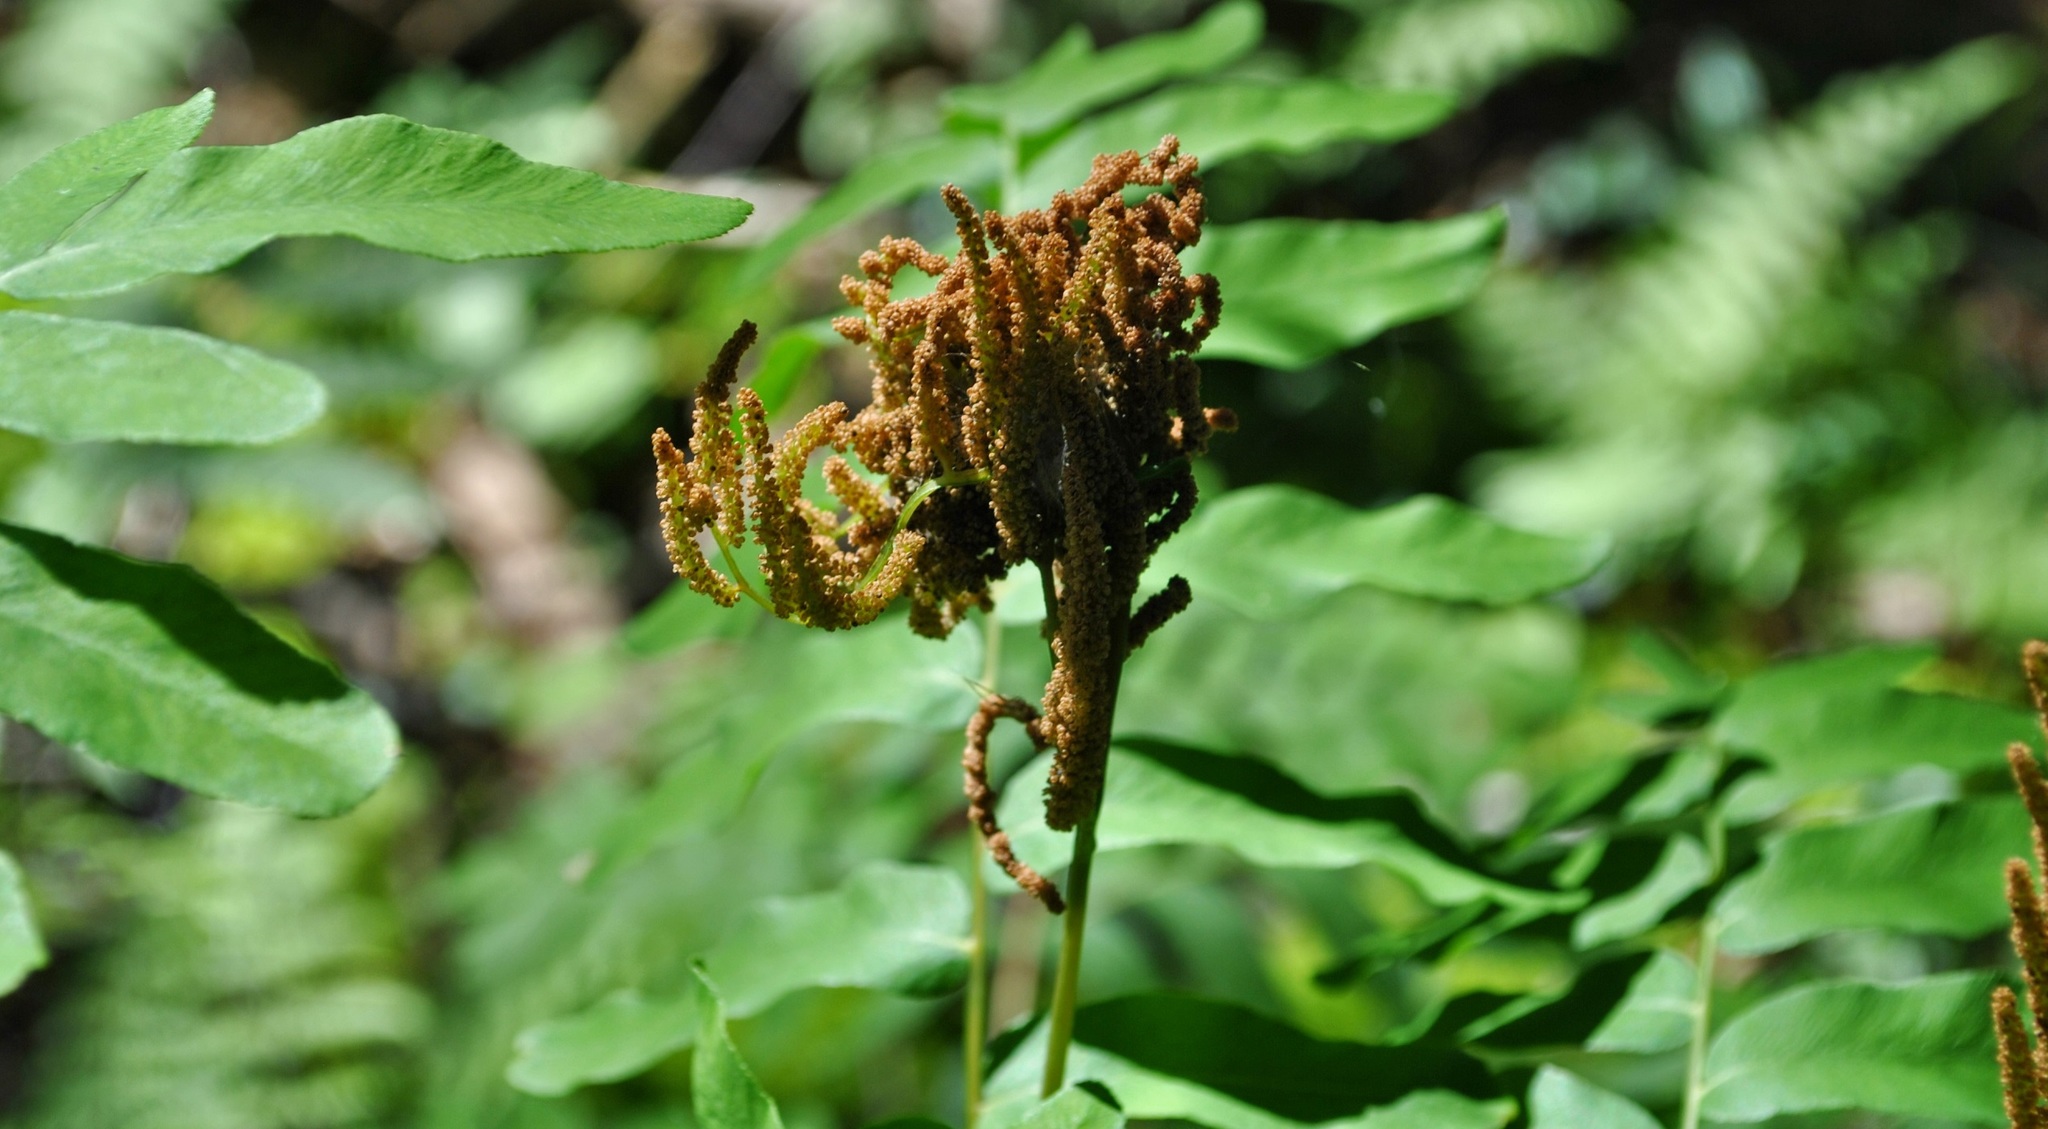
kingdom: Plantae
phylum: Tracheophyta
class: Polypodiopsida
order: Osmundales
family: Osmundaceae
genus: Osmunda
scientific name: Osmunda spectabilis
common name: American royal fern
